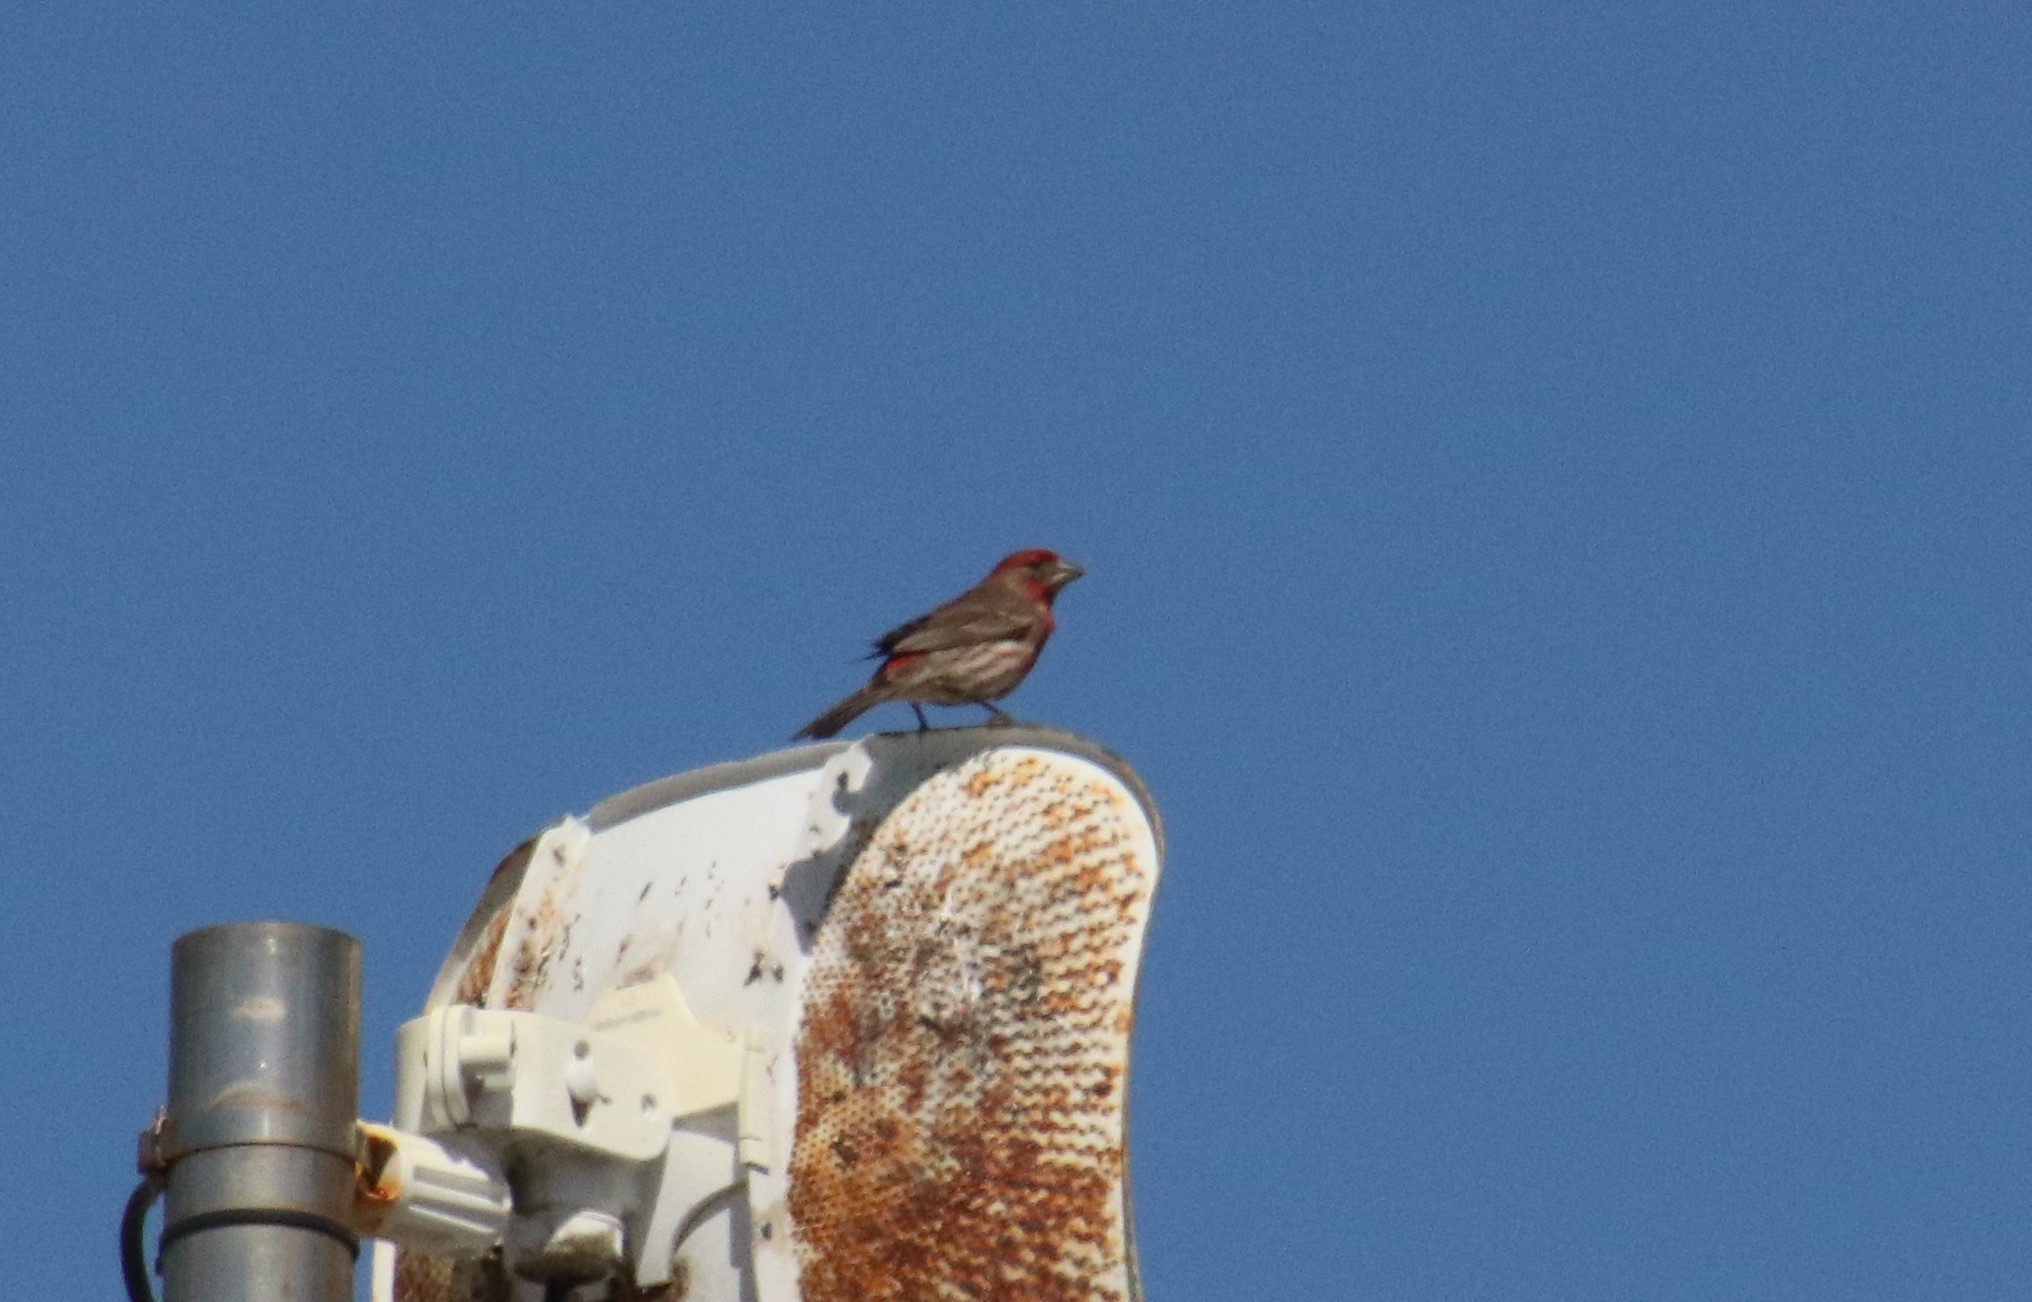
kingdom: Animalia
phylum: Chordata
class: Aves
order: Passeriformes
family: Fringillidae
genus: Haemorhous
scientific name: Haemorhous mexicanus
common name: House finch
